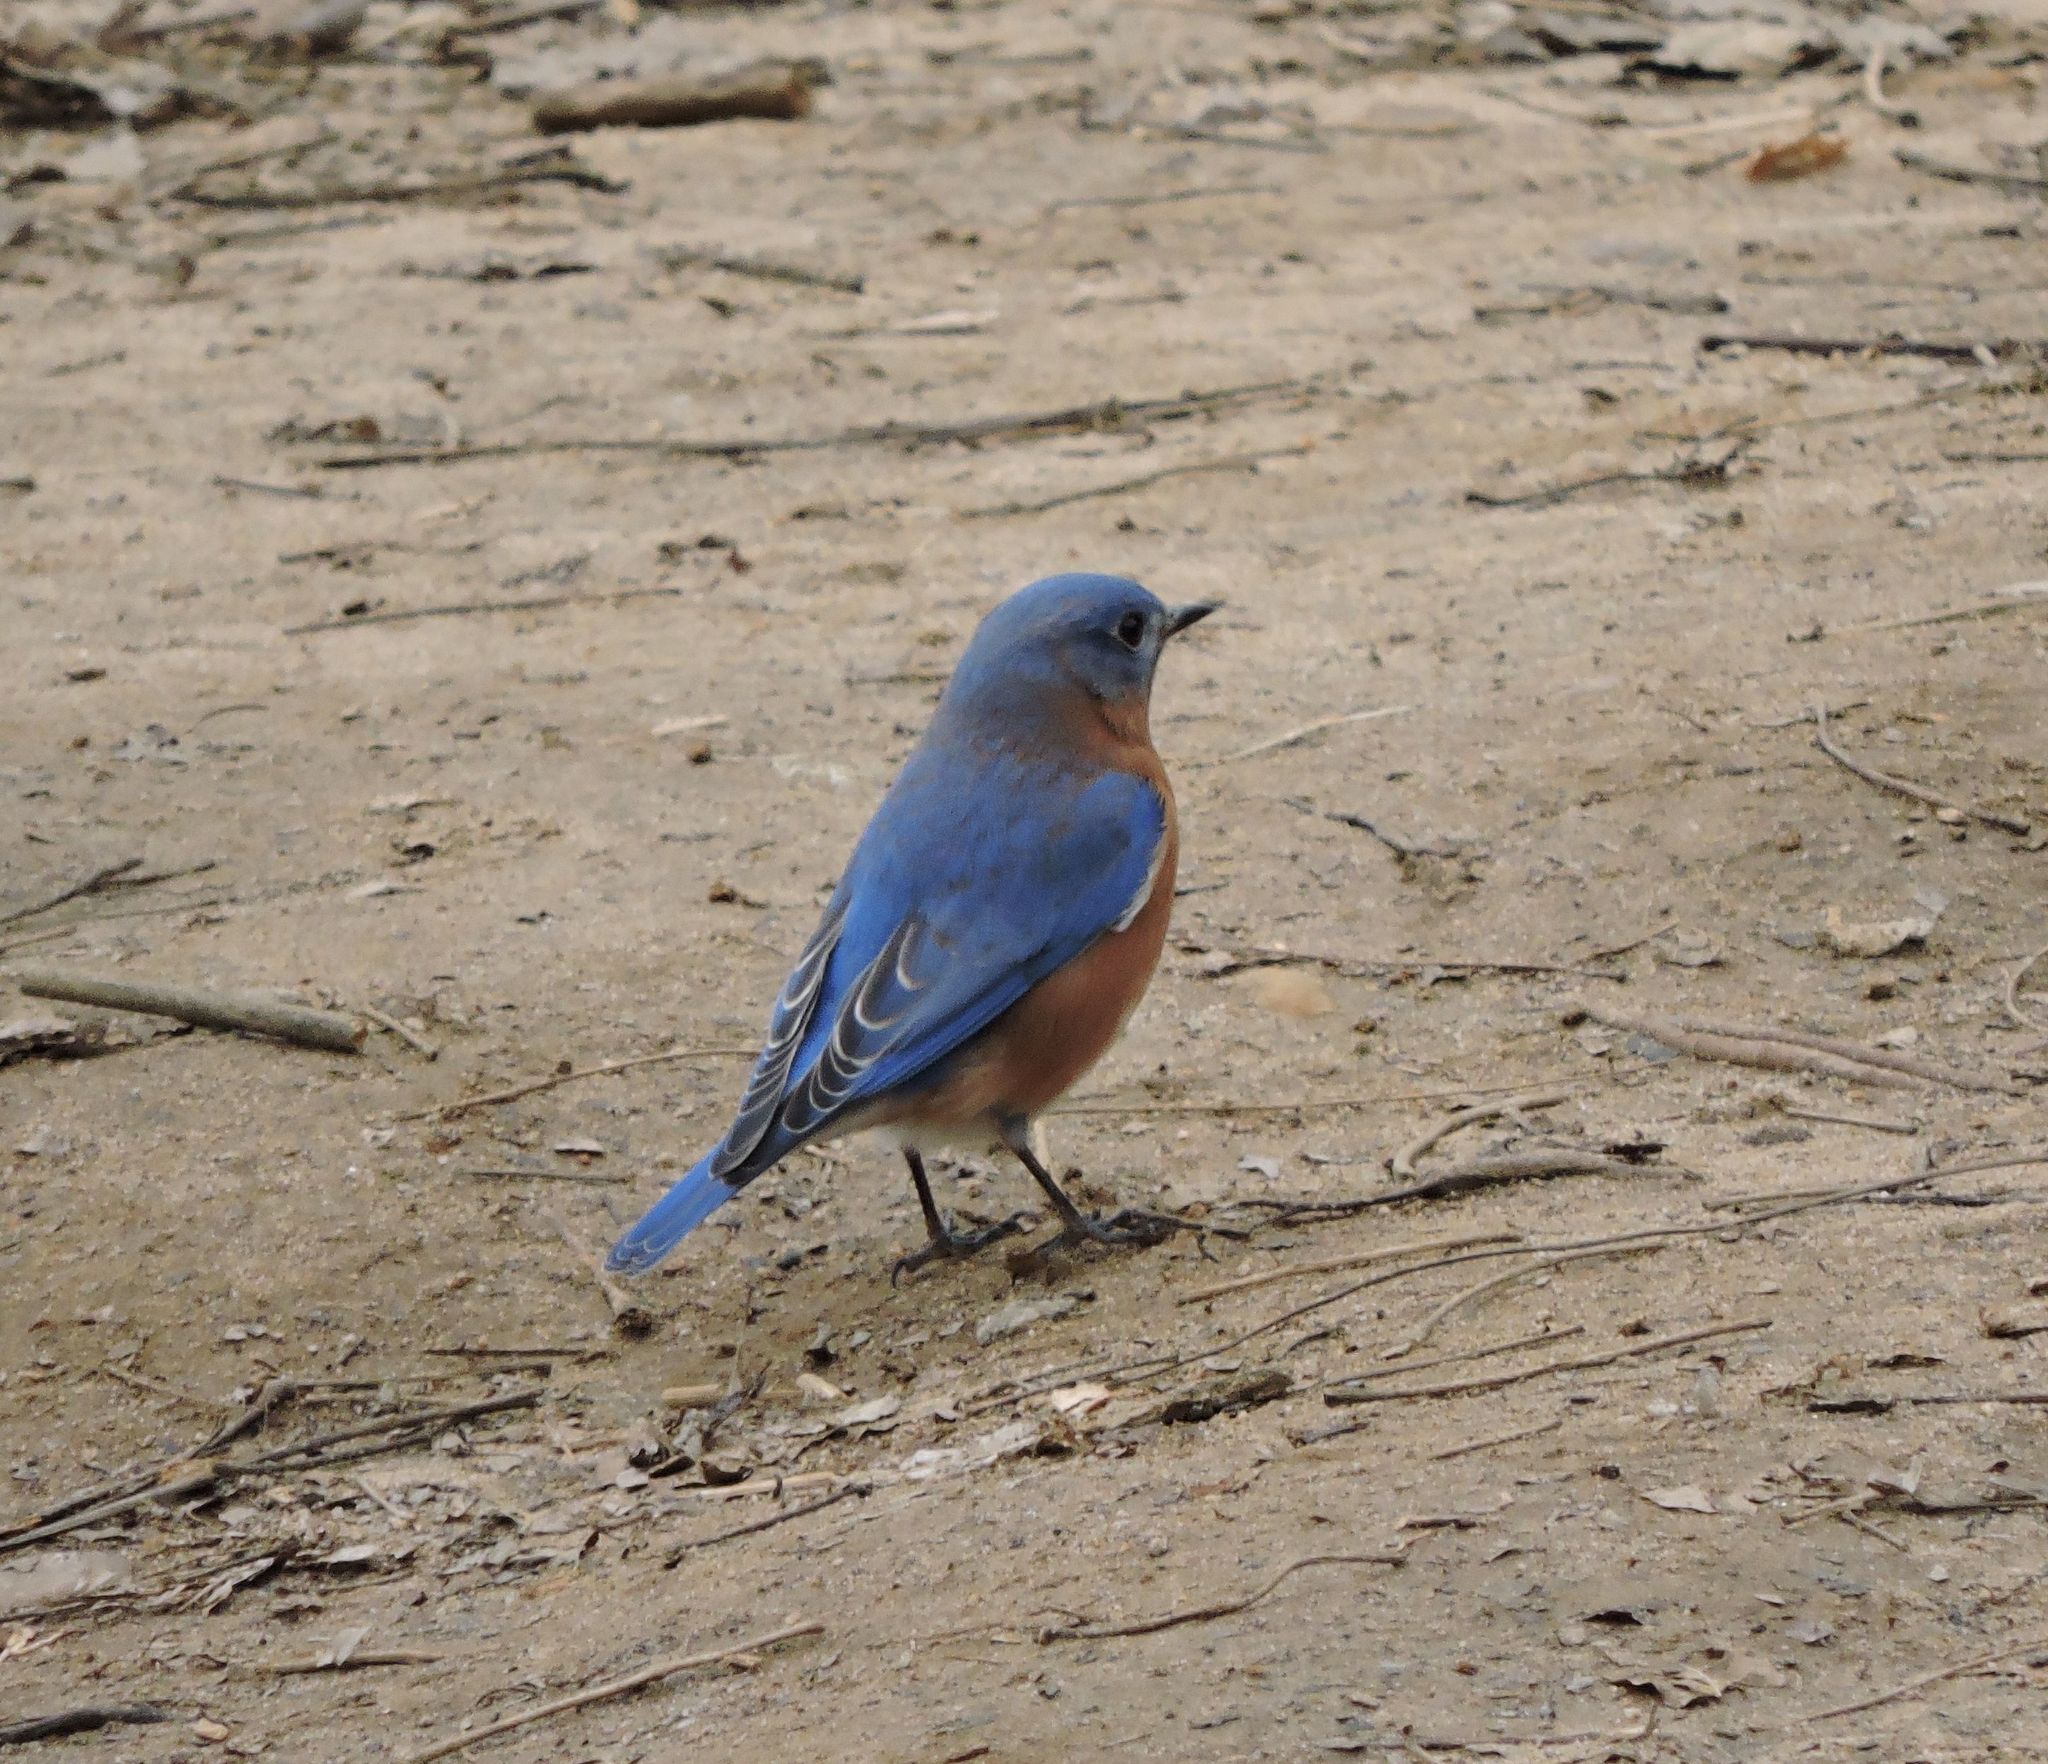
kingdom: Animalia
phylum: Chordata
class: Aves
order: Passeriformes
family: Turdidae
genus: Sialia
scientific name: Sialia sialis
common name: Eastern bluebird
